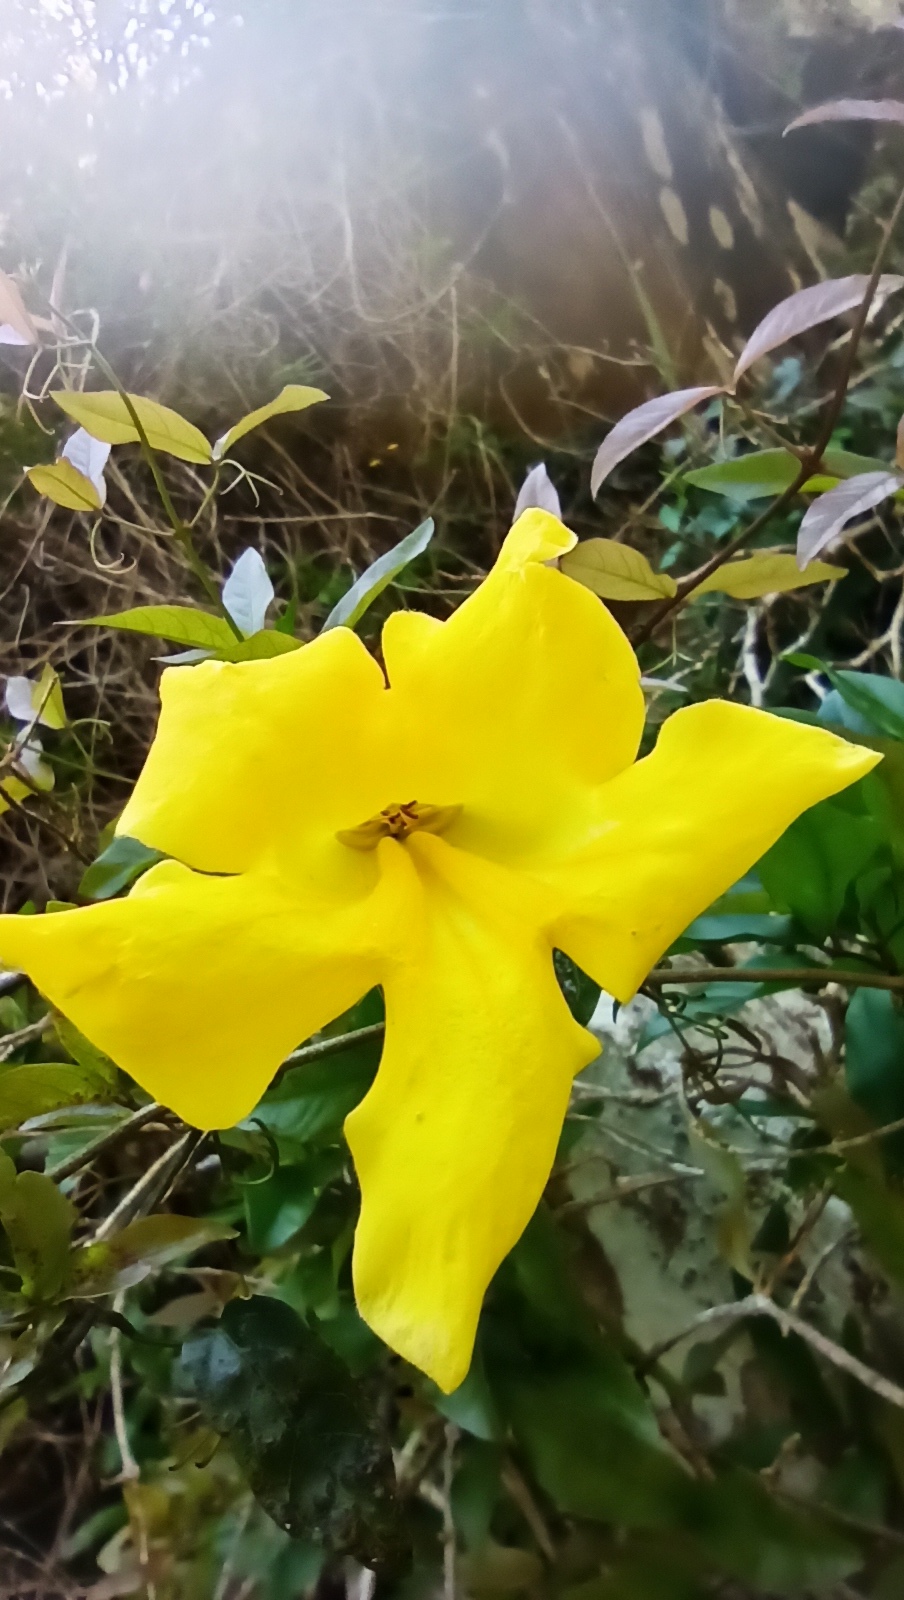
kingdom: Plantae
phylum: Tracheophyta
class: Magnoliopsida
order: Lamiales
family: Bignoniaceae
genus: Dolichandra
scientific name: Dolichandra unguis-cati
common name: Catclaw vine
